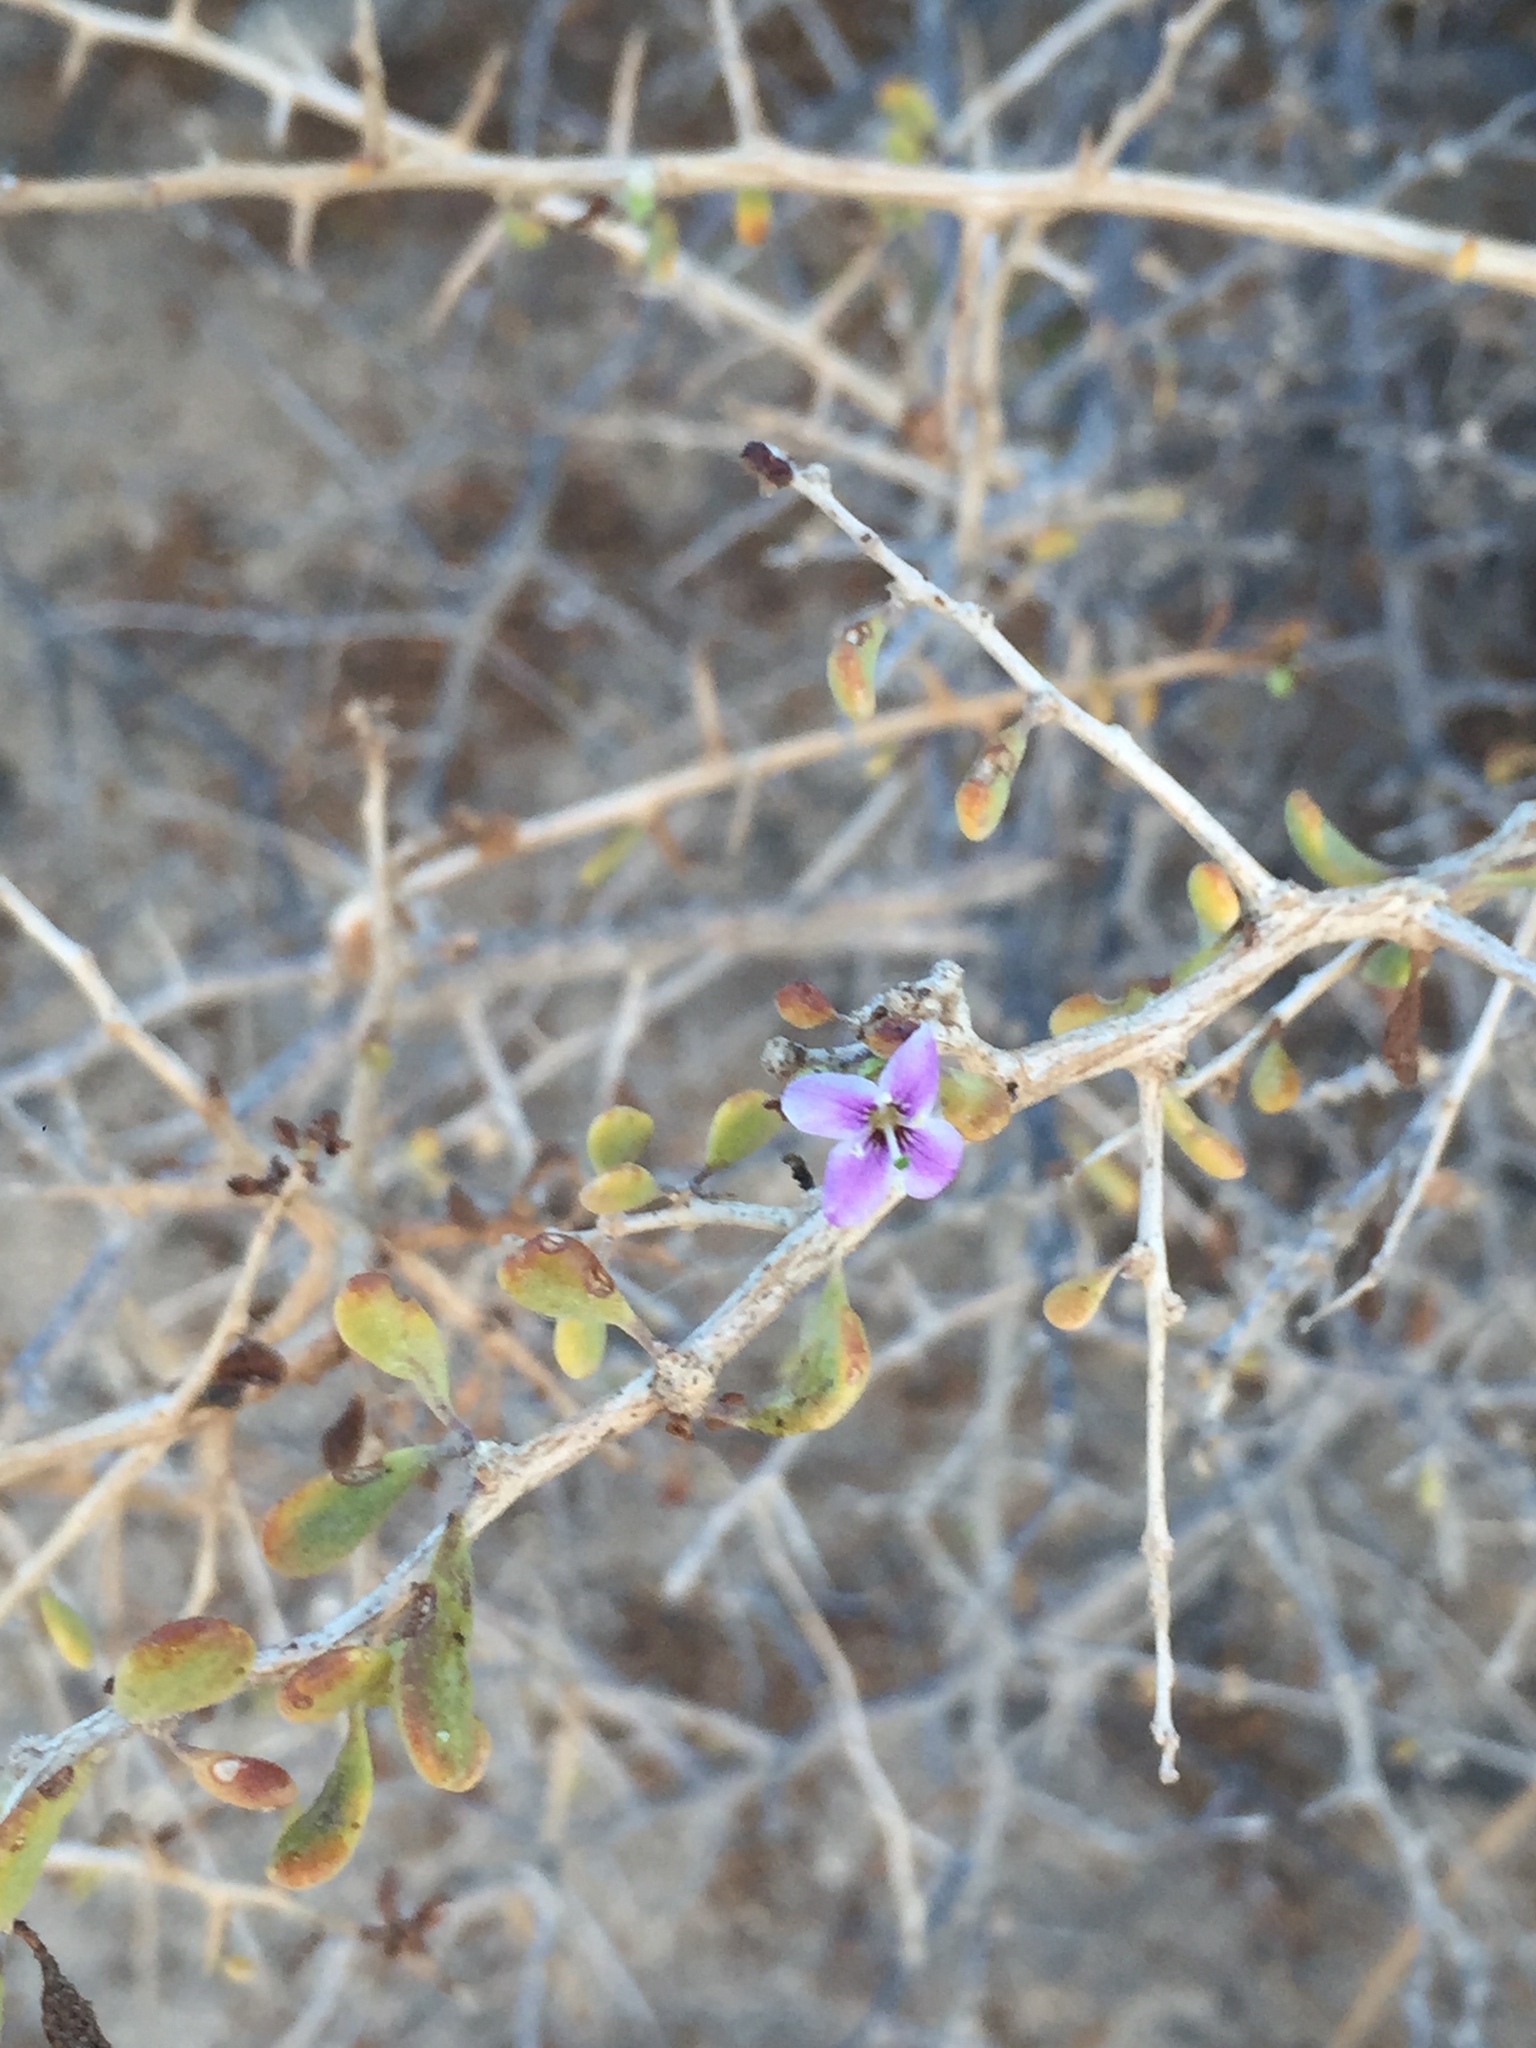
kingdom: Plantae
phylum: Tracheophyta
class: Magnoliopsida
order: Solanales
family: Solanaceae
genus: Lycium
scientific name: Lycium brevipes
